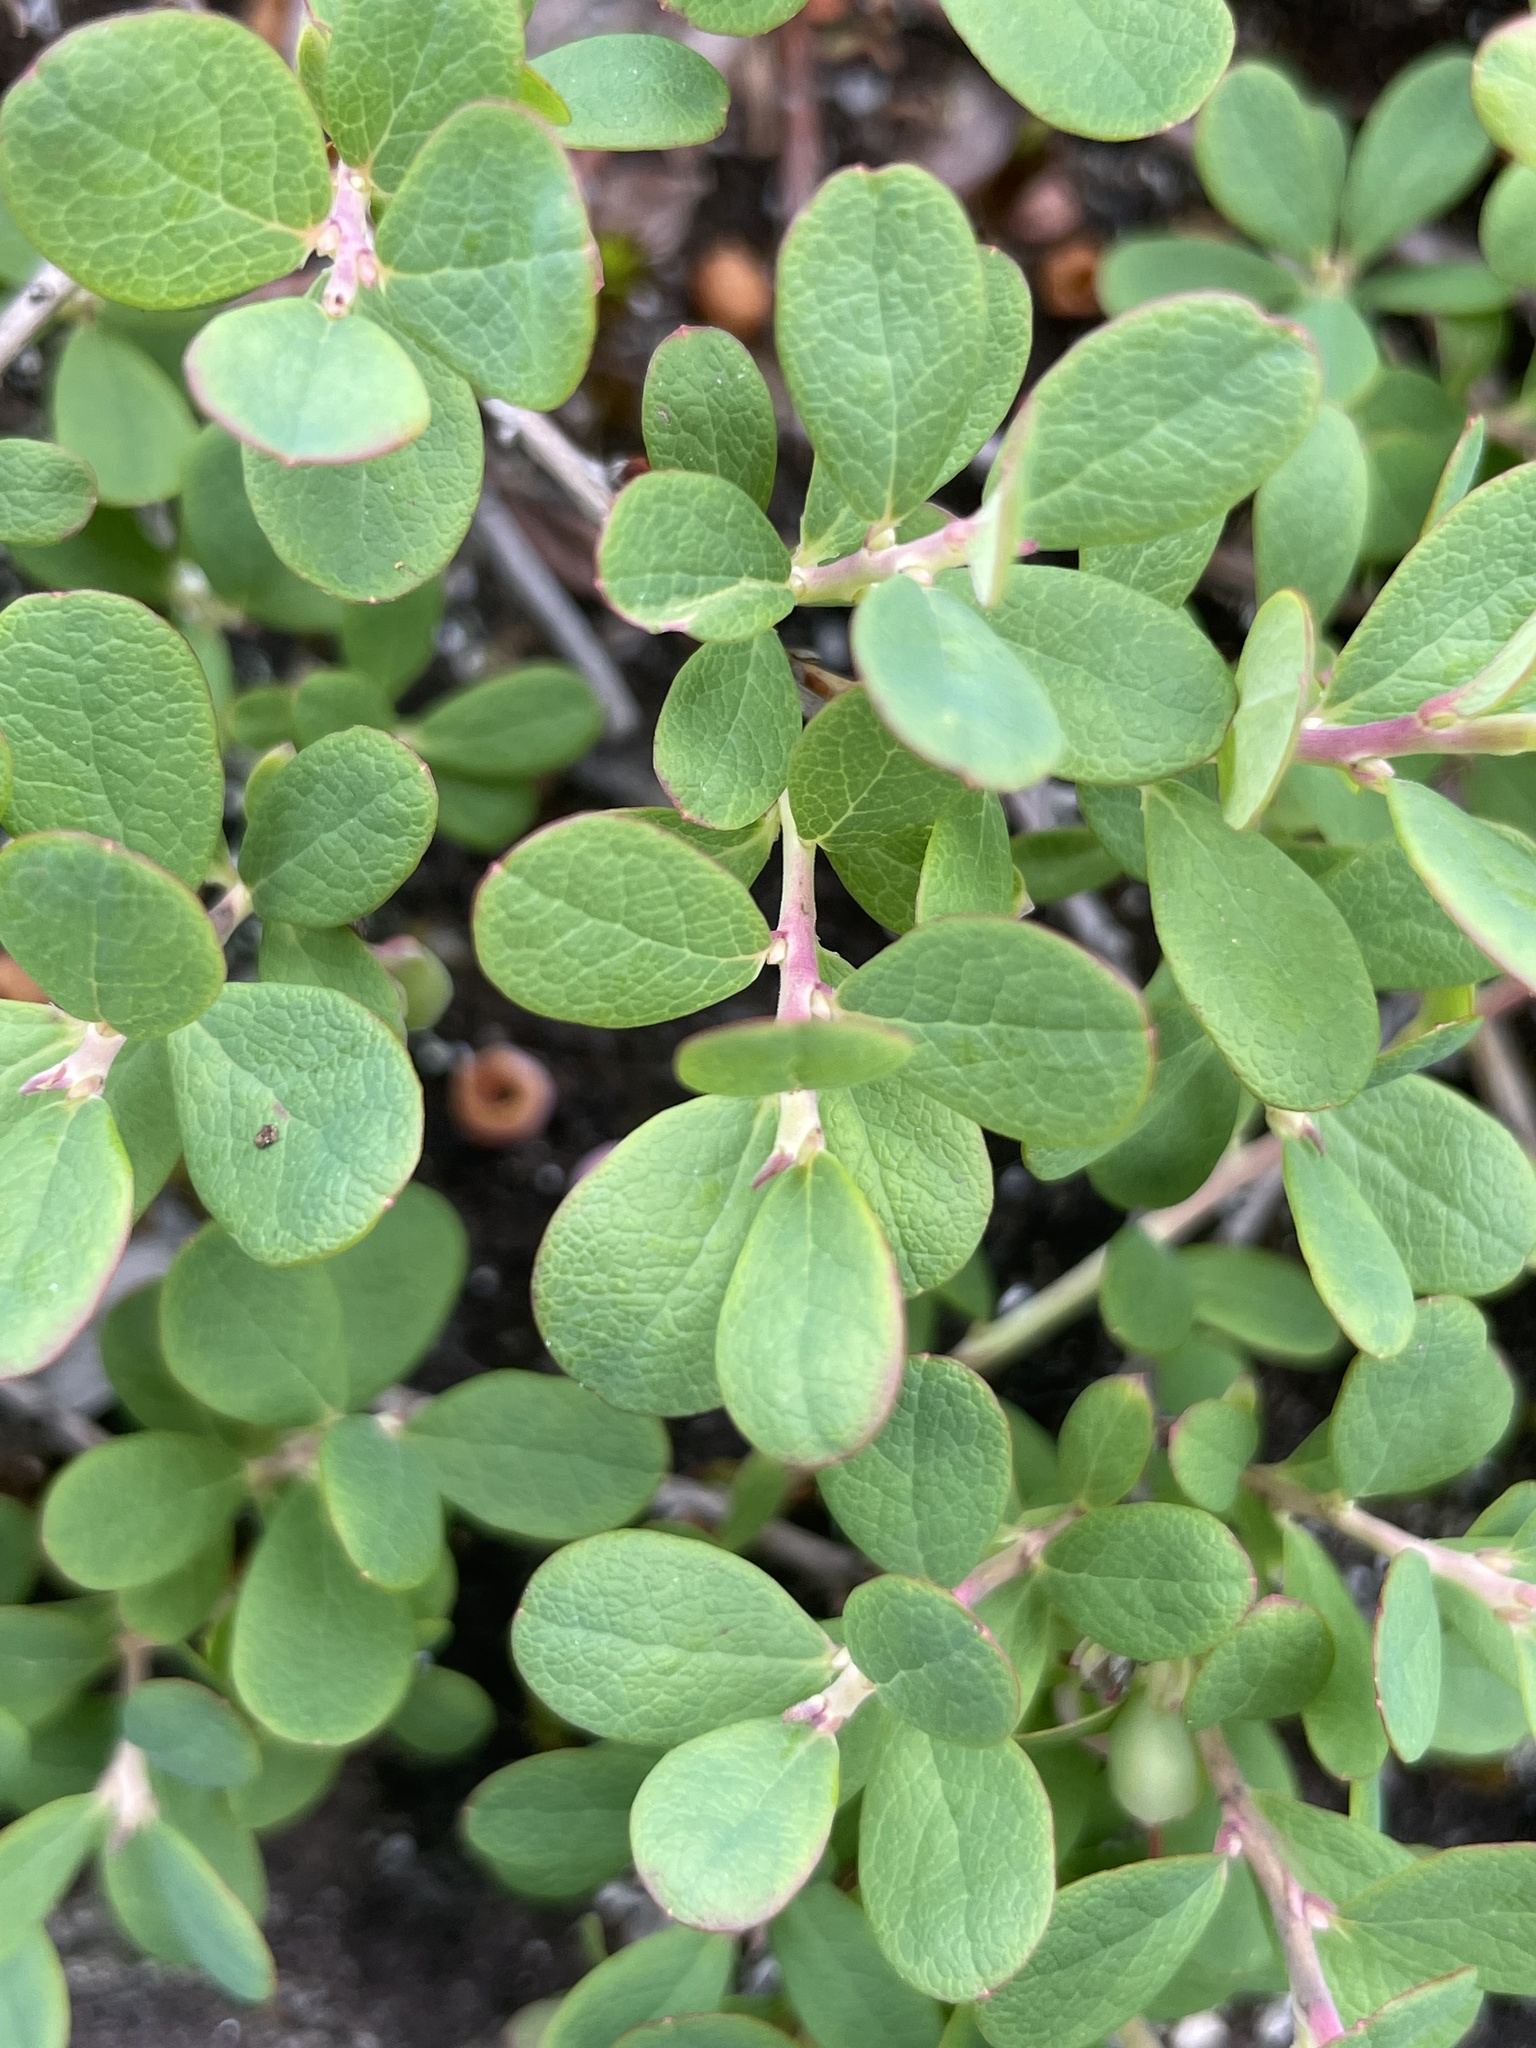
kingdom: Plantae
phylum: Tracheophyta
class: Magnoliopsida
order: Ericales
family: Ericaceae
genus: Vaccinium
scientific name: Vaccinium uliginosum
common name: Bog bilberry
